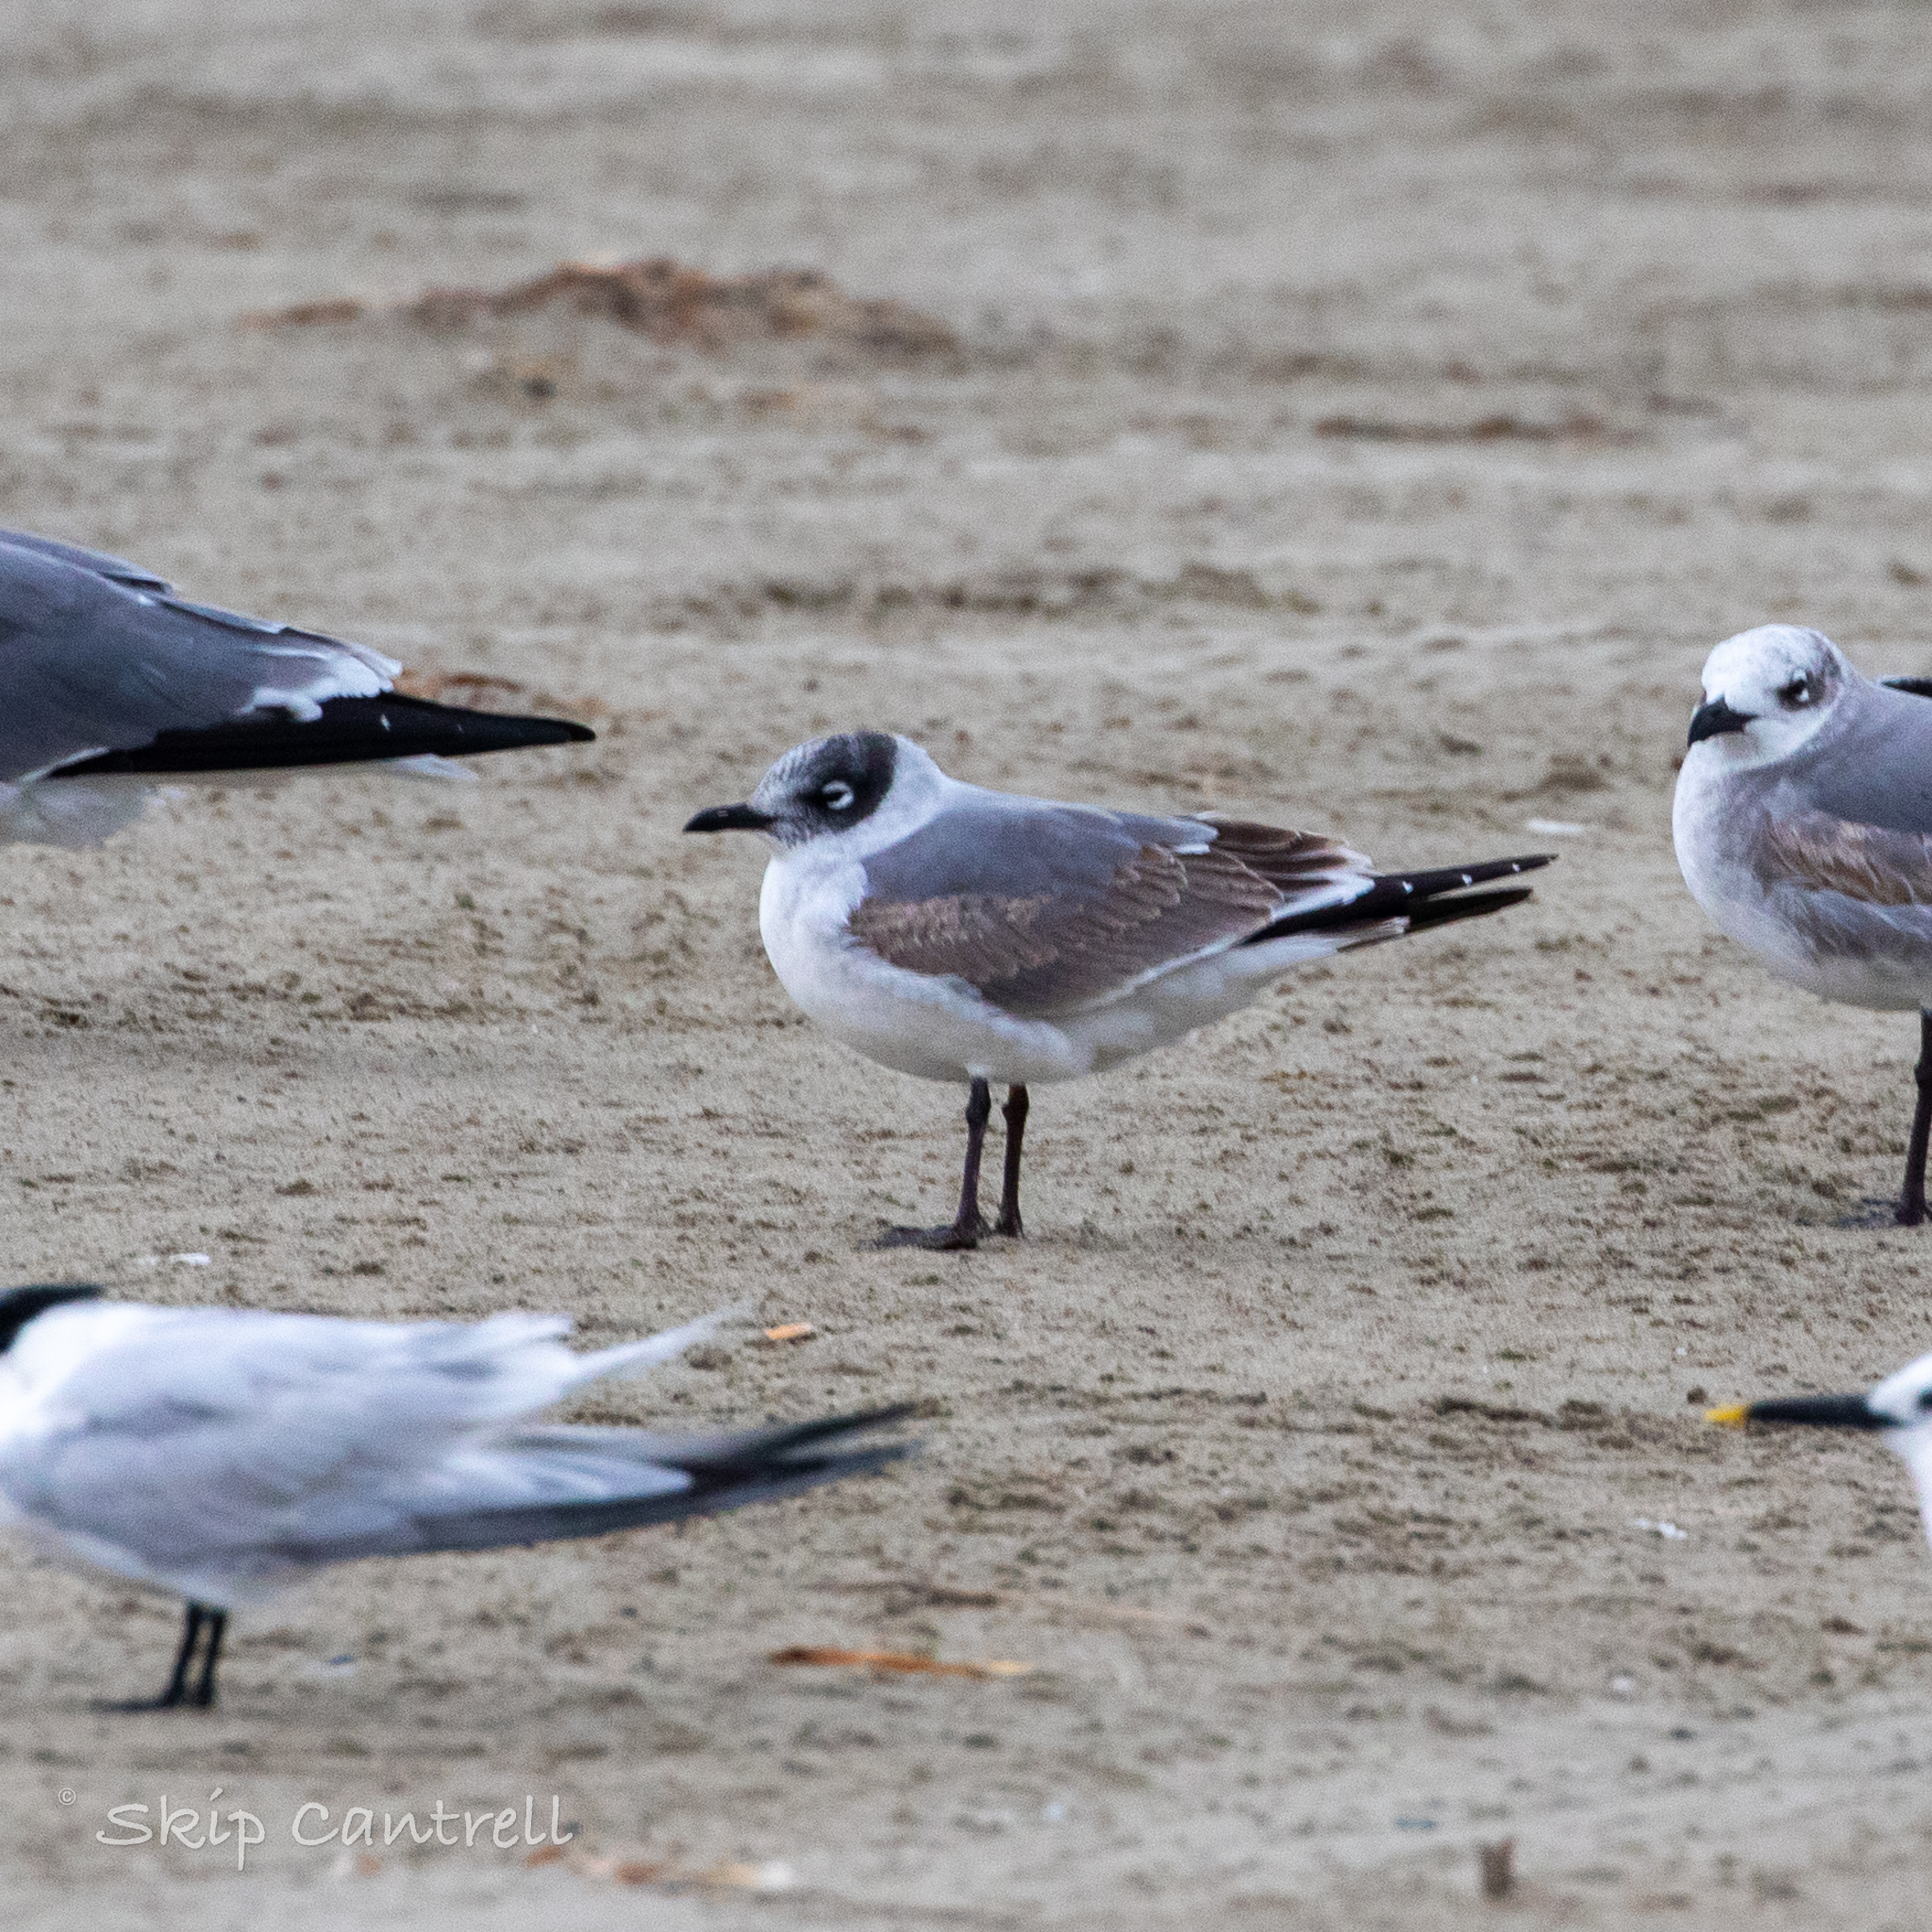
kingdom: Animalia
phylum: Chordata
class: Aves
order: Charadriiformes
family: Laridae
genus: Leucophaeus
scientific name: Leucophaeus pipixcan
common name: Franklin's gull
